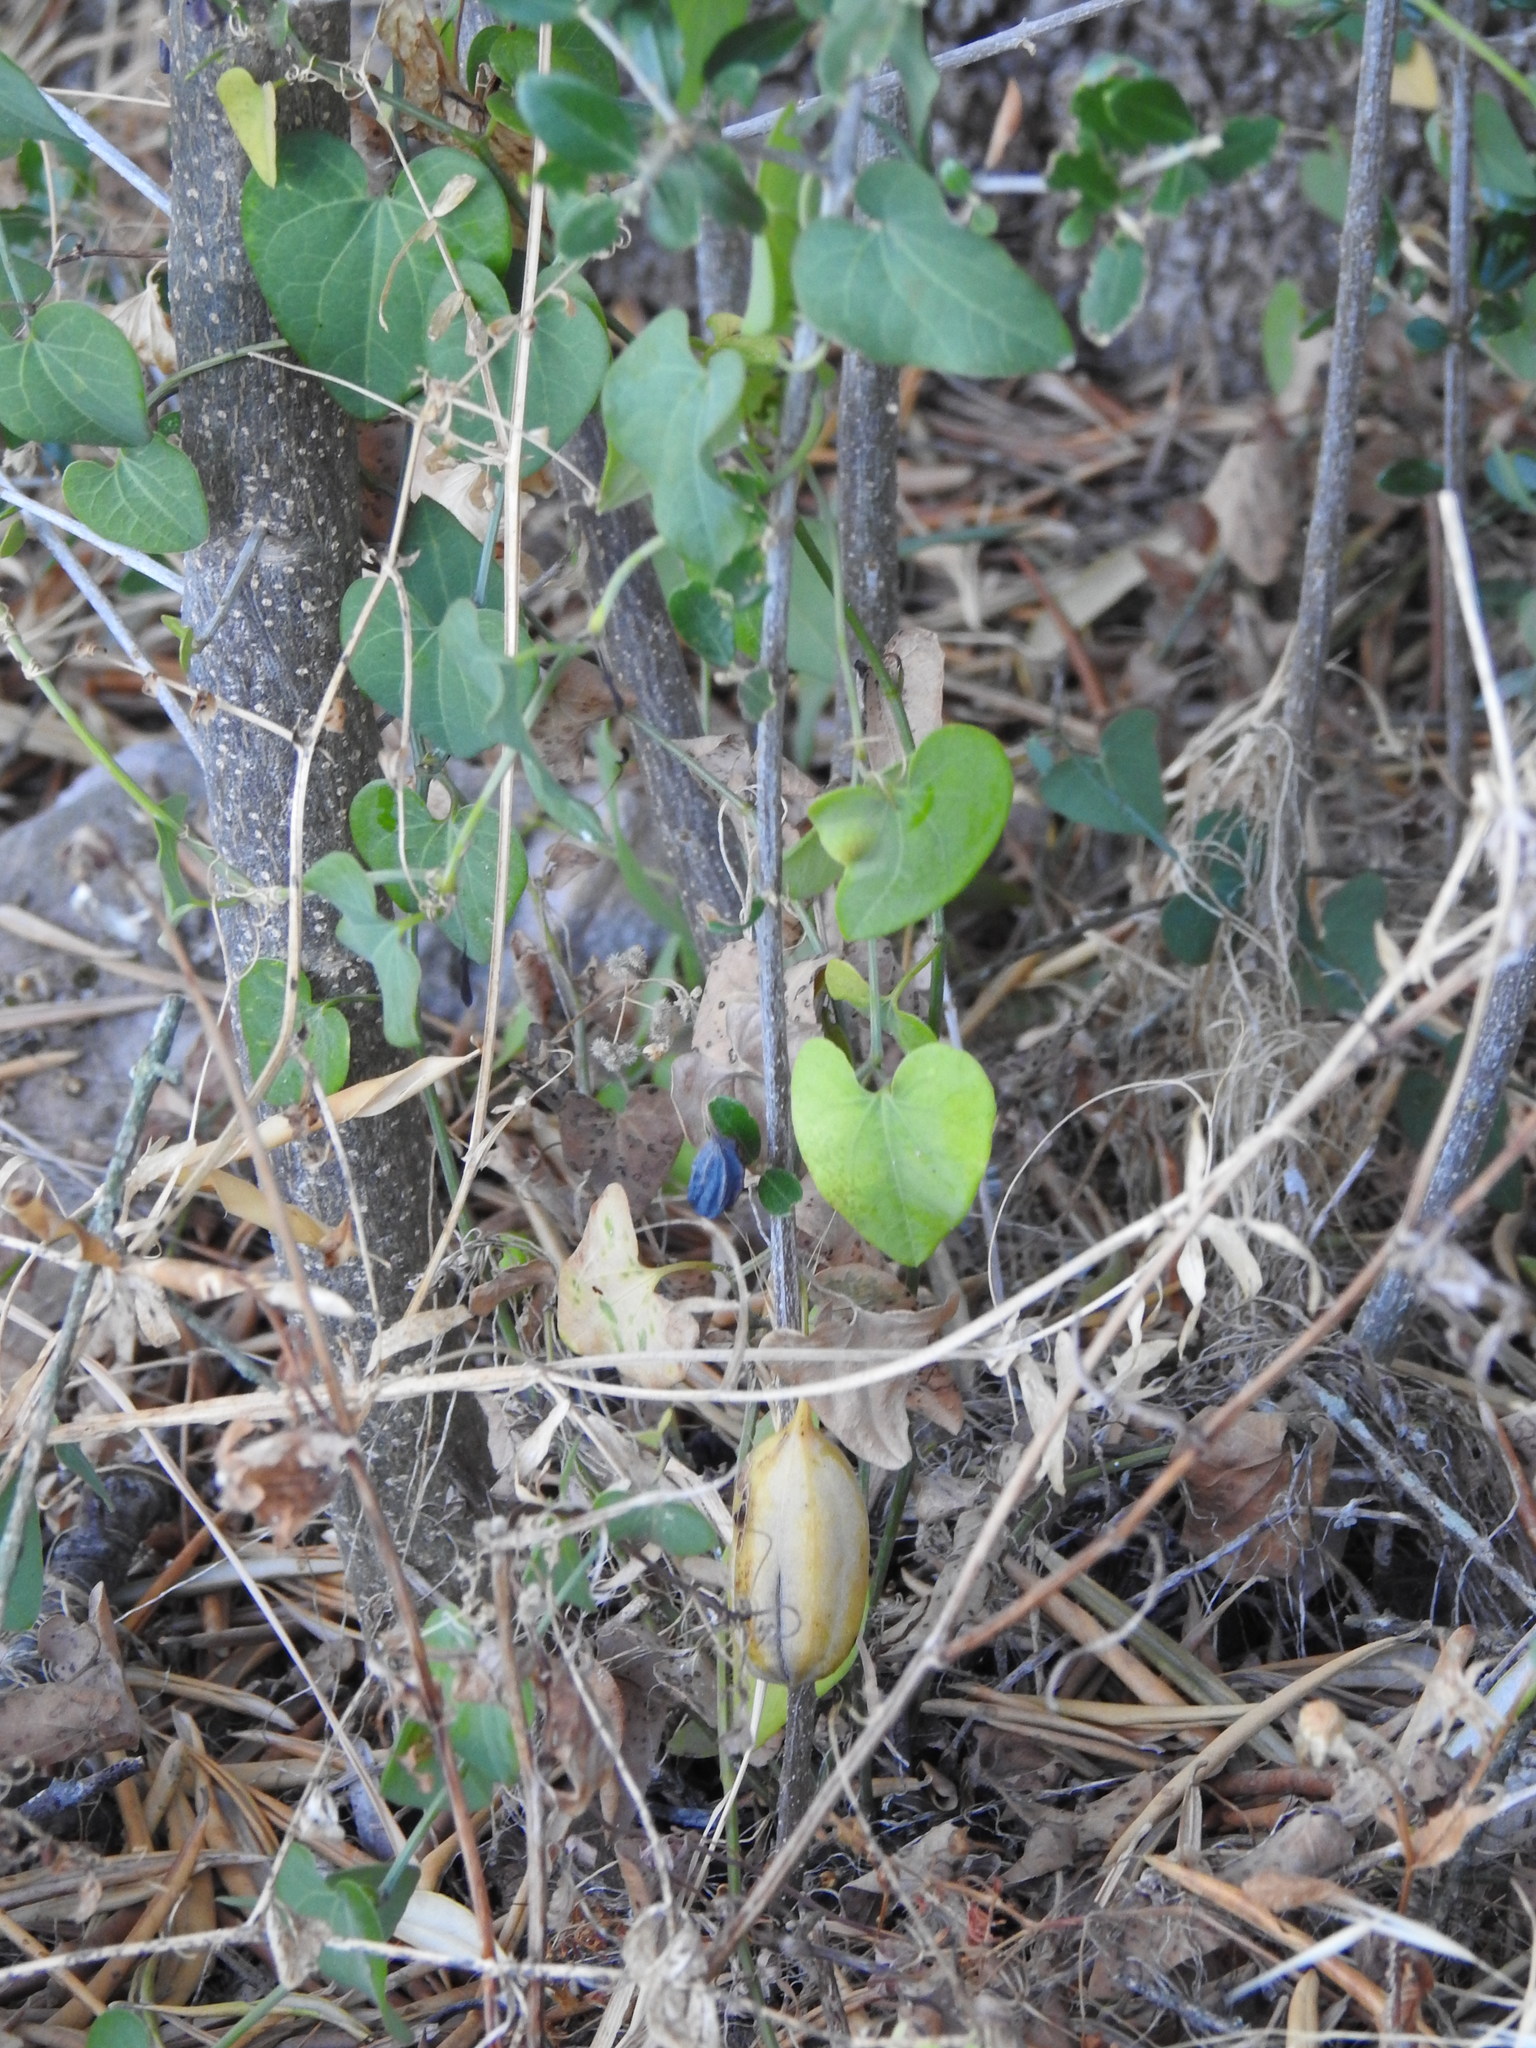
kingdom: Plantae
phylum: Tracheophyta
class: Magnoliopsida
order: Piperales
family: Aristolochiaceae
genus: Aristolochia
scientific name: Aristolochia baetica
